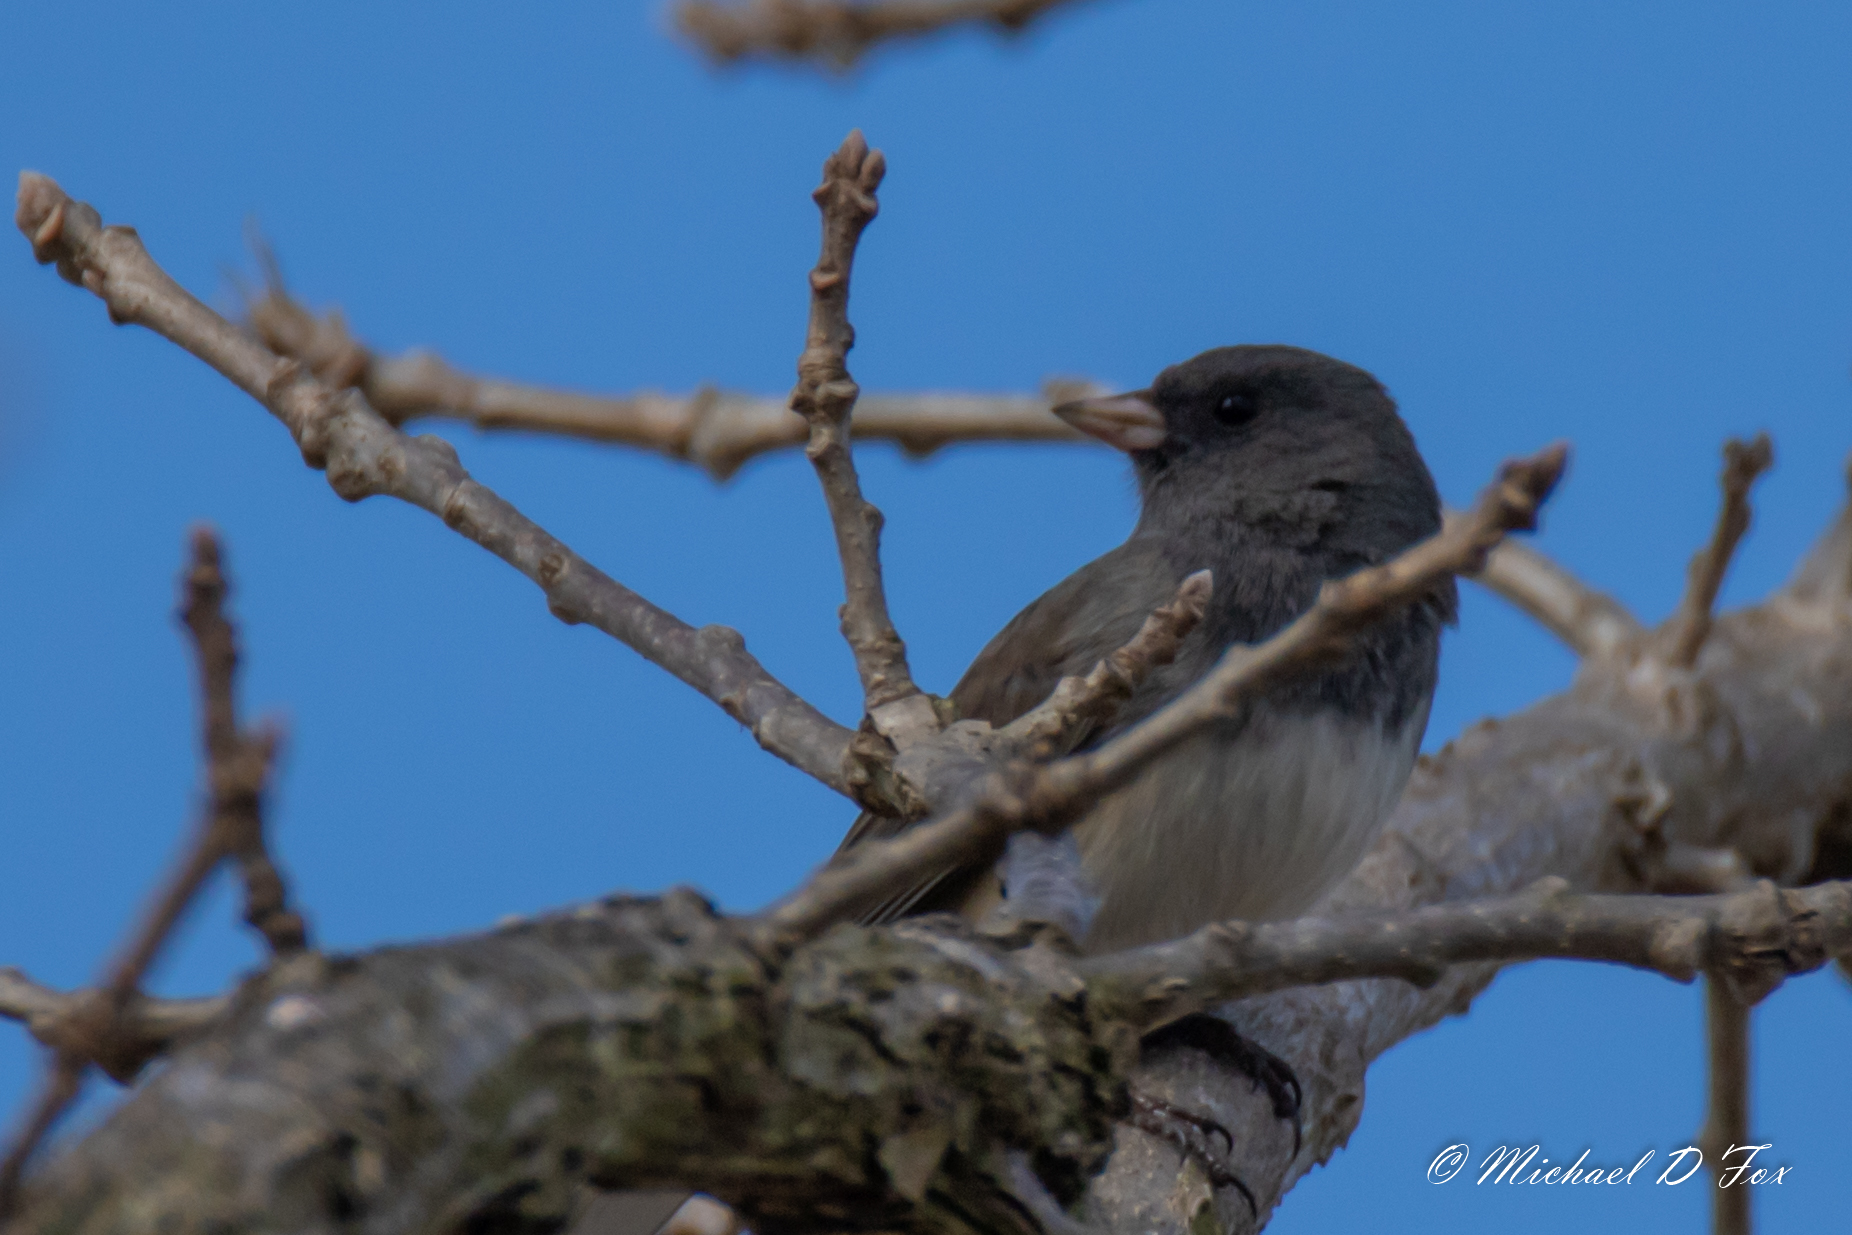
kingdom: Animalia
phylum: Chordata
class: Aves
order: Passeriformes
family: Passerellidae
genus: Junco
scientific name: Junco hyemalis
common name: Dark-eyed junco
